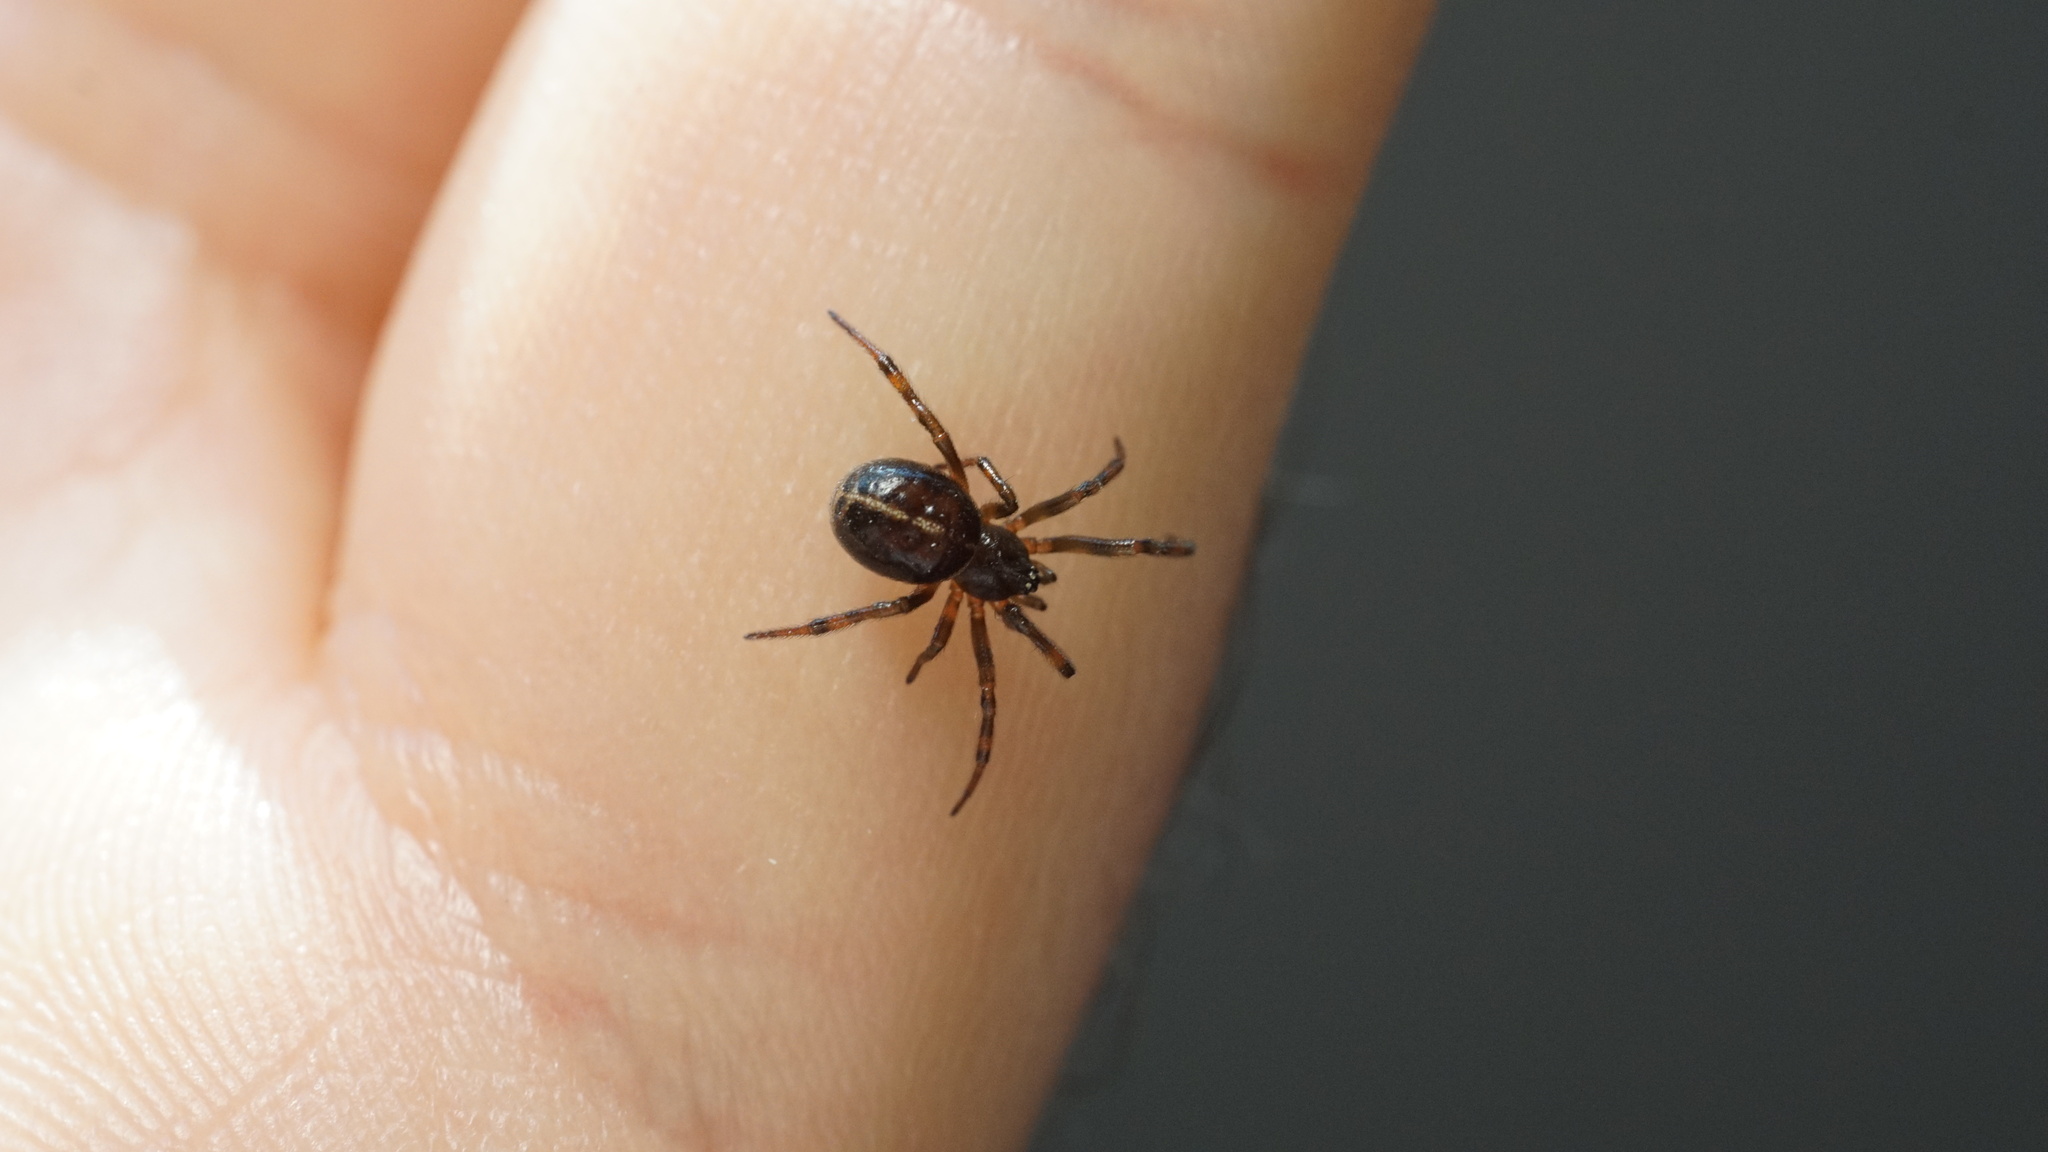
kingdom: Animalia
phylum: Arthropoda
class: Arachnida
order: Araneae
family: Theridiidae
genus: Steatoda
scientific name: Steatoda bipunctata
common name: False widow
